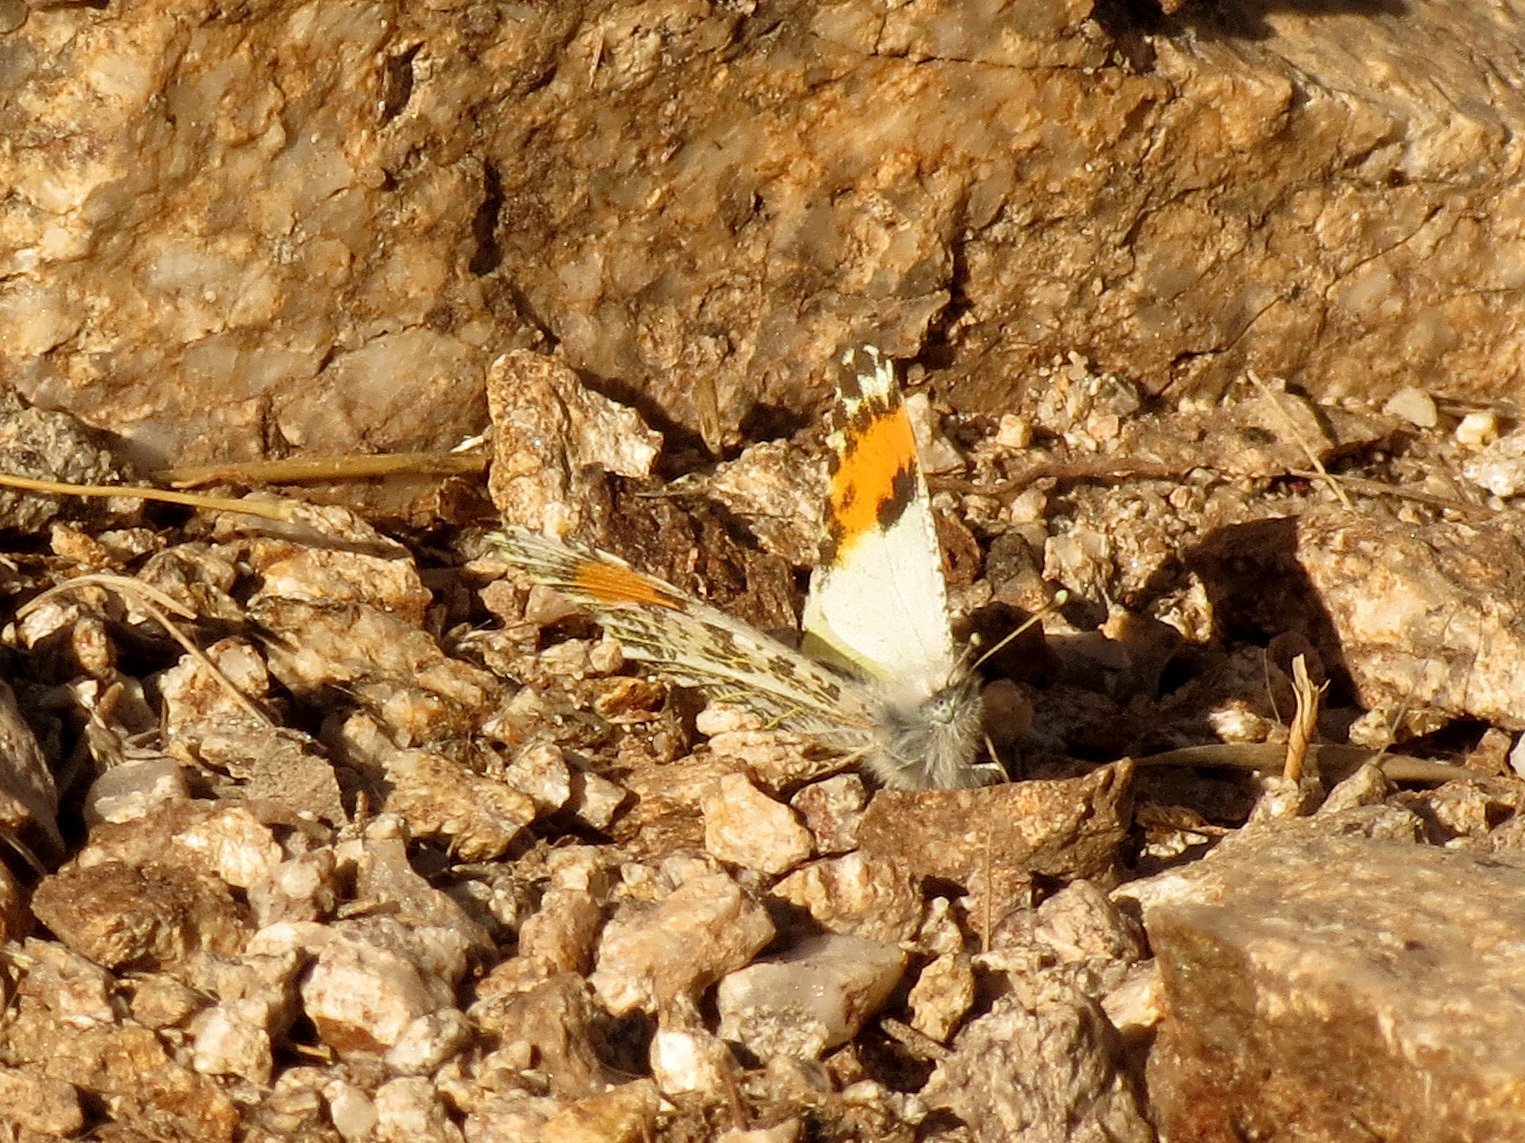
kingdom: Animalia
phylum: Arthropoda
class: Insecta
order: Lepidoptera
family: Pieridae
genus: Anthocharis
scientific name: Anthocharis thoosa
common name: Southwestern orangetip
